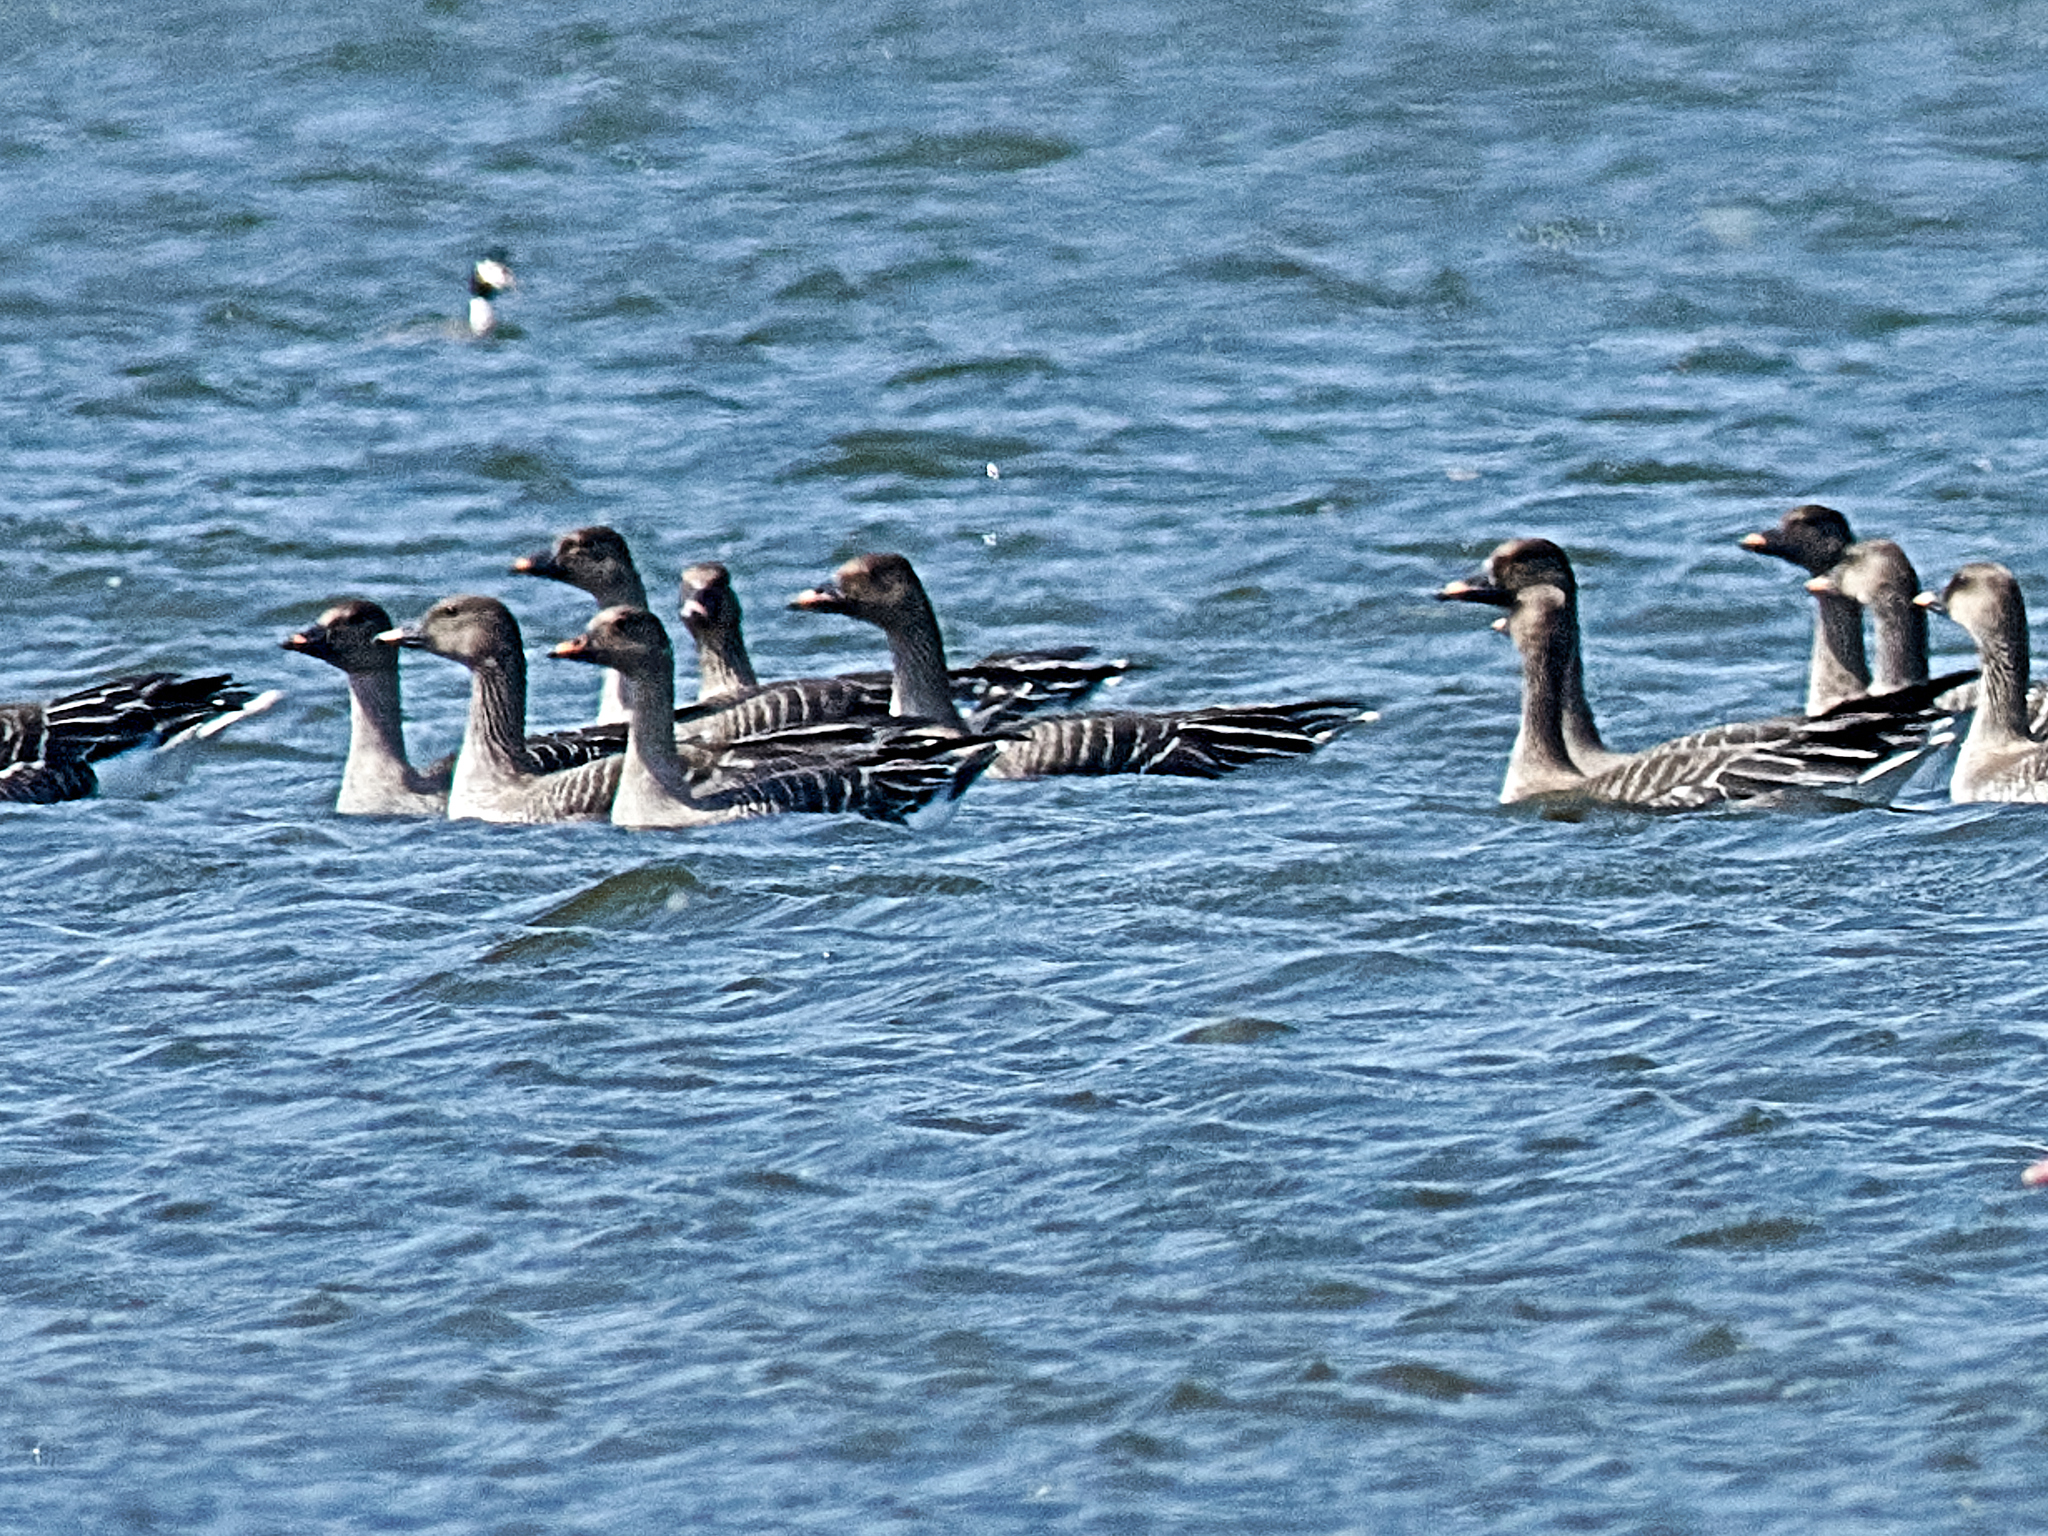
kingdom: Animalia
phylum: Chordata
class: Aves
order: Anseriformes
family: Anatidae
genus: Anser
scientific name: Anser serrirostris
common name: Tundra bean goose
